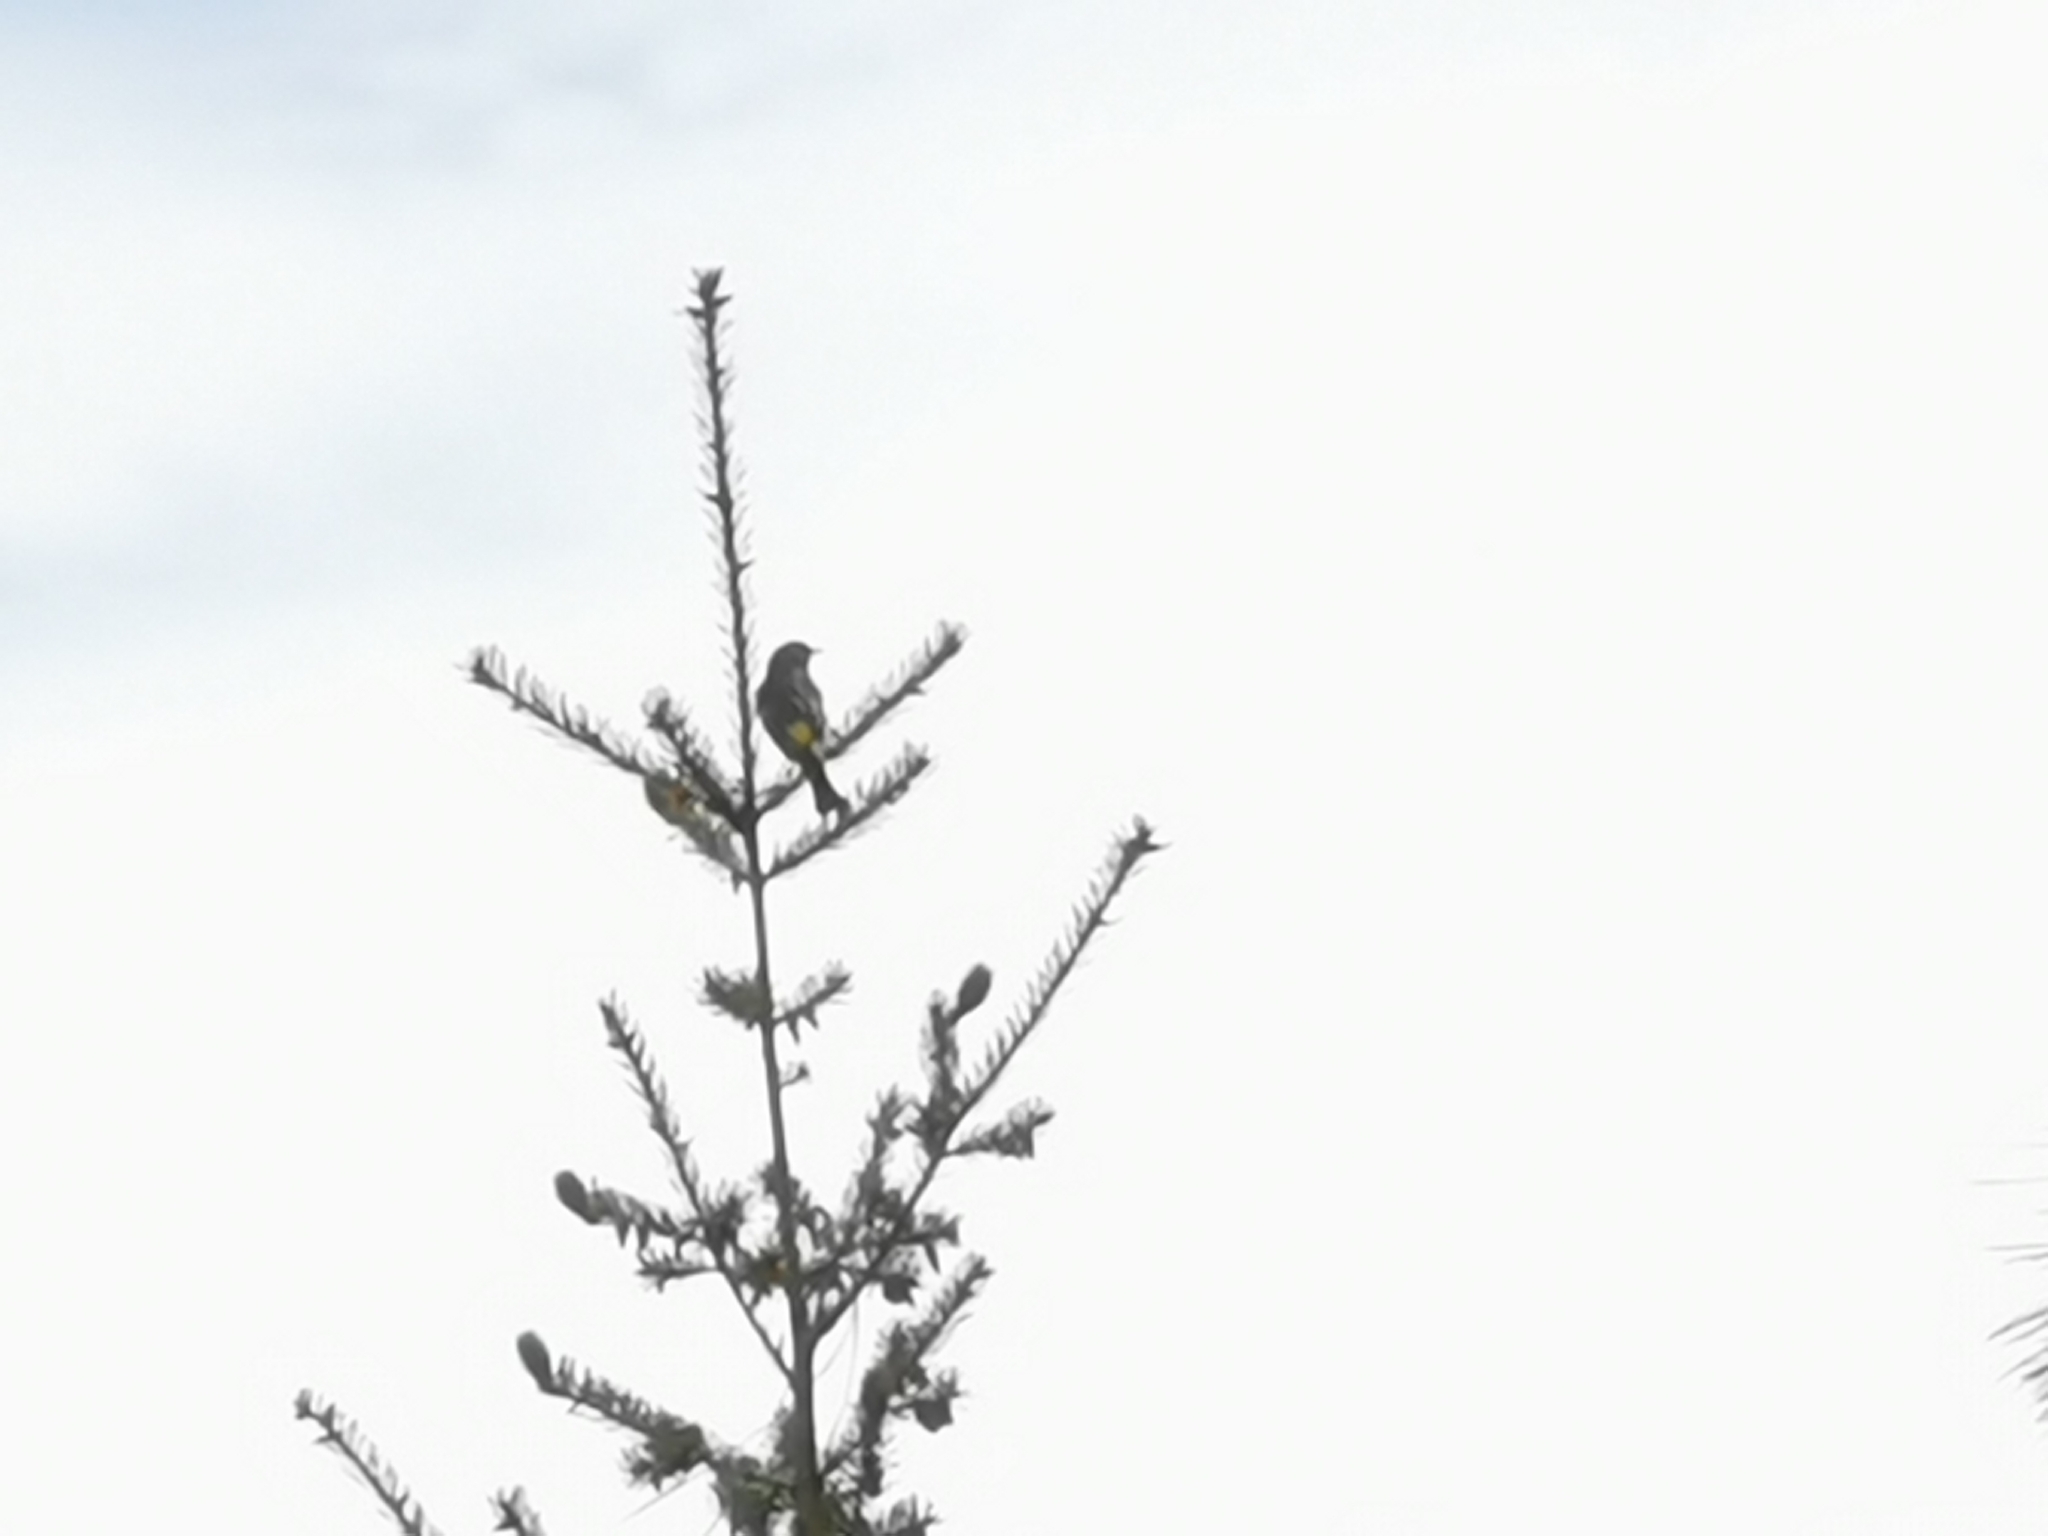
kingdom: Animalia
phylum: Chordata
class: Aves
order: Passeriformes
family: Parulidae
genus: Setophaga
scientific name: Setophaga coronata
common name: Myrtle warbler
